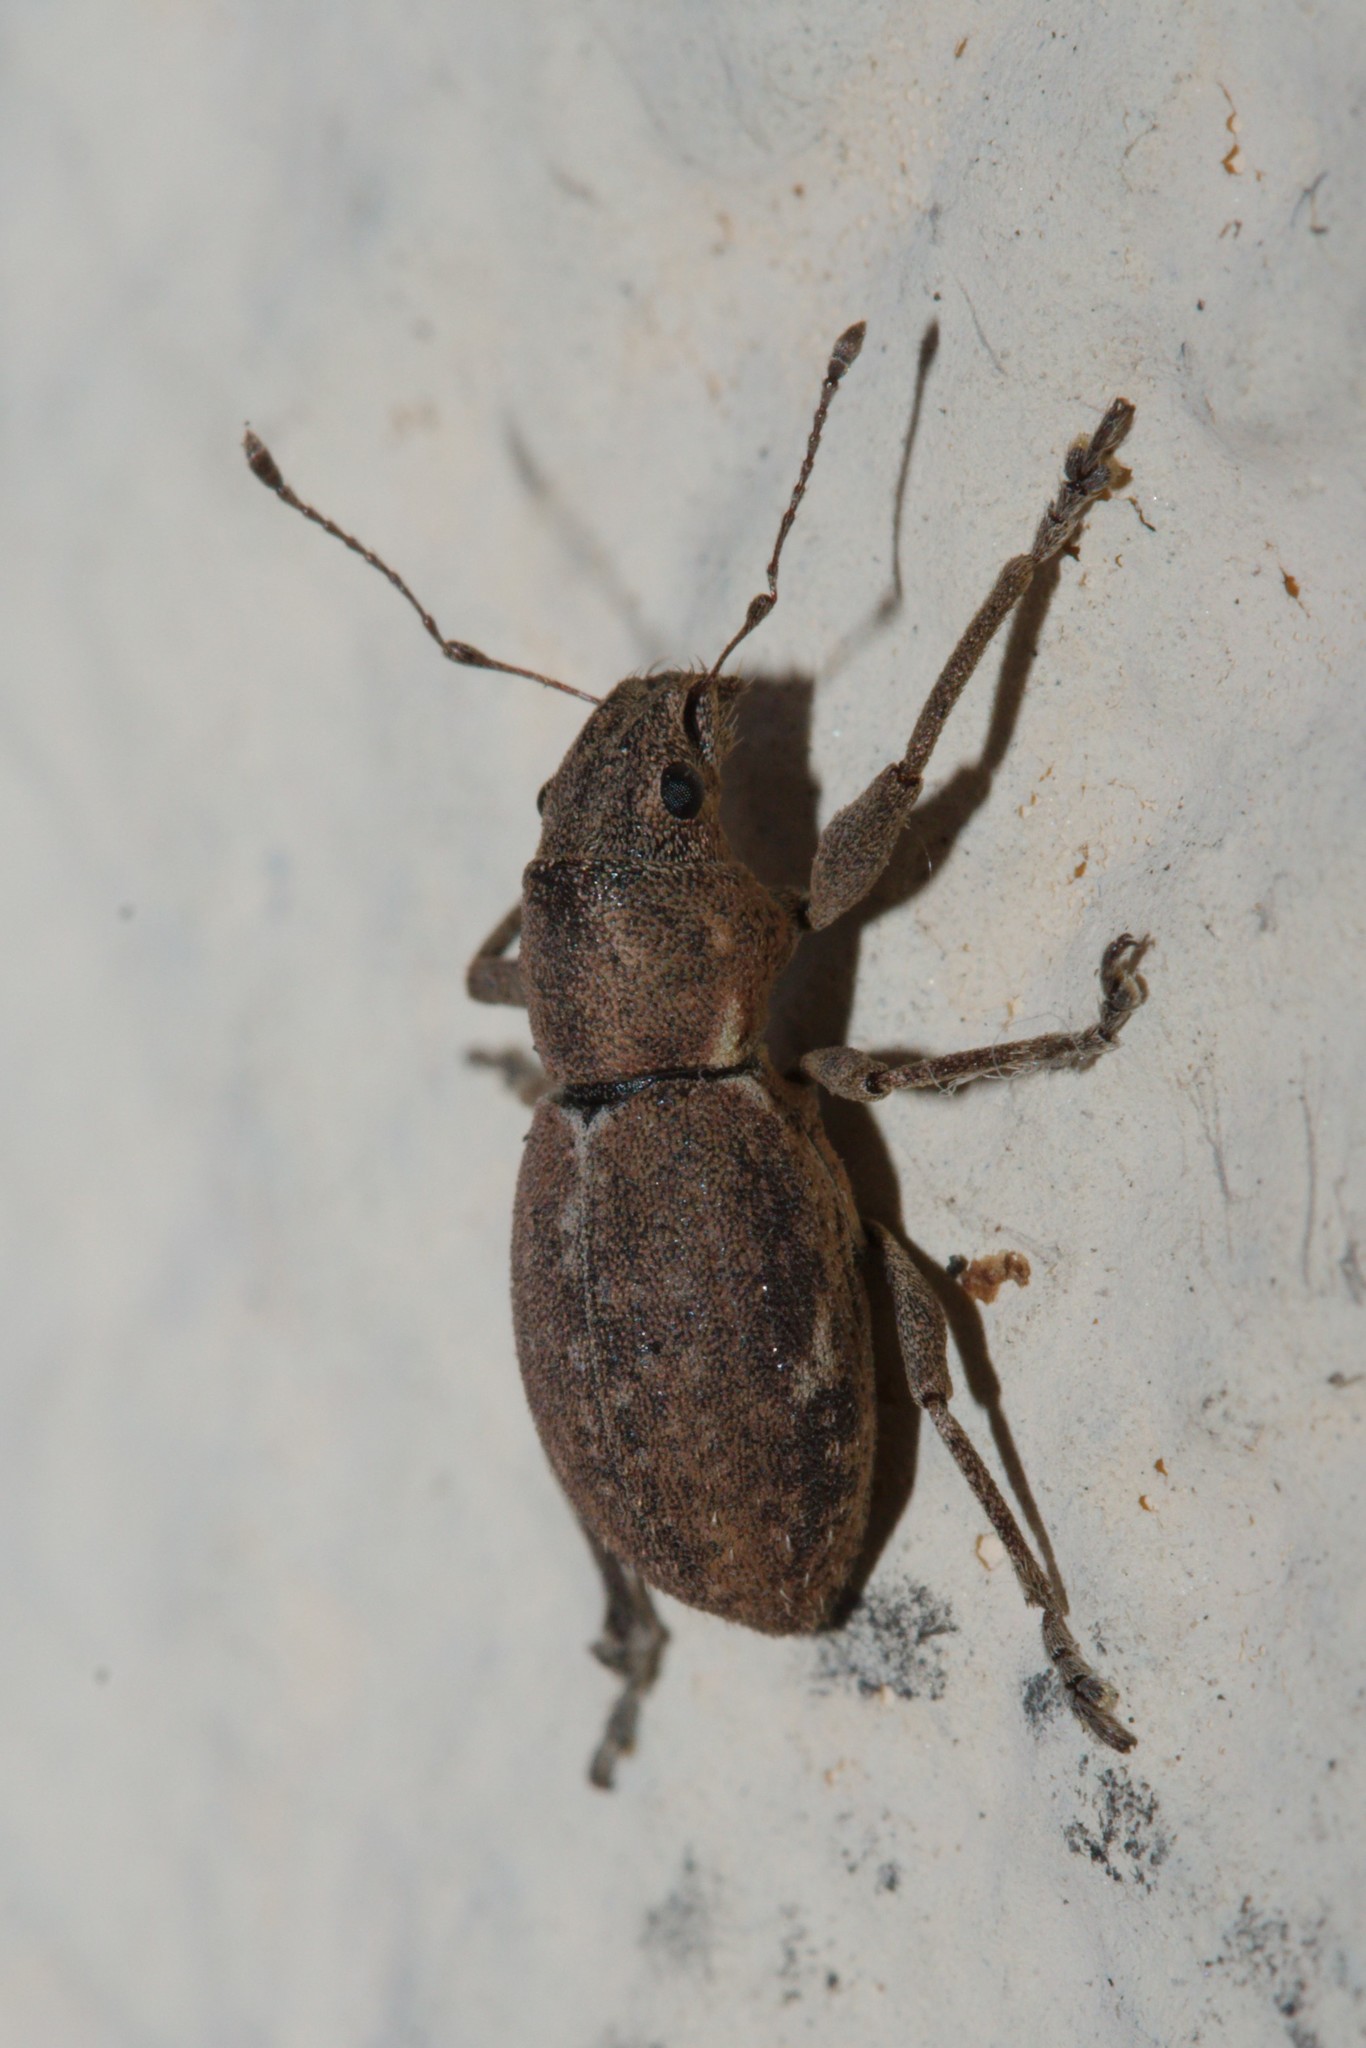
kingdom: Animalia
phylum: Arthropoda
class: Insecta
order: Coleoptera
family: Curculionidae
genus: Naupactus
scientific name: Naupactus cervinus
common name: Fuller rose beetle
